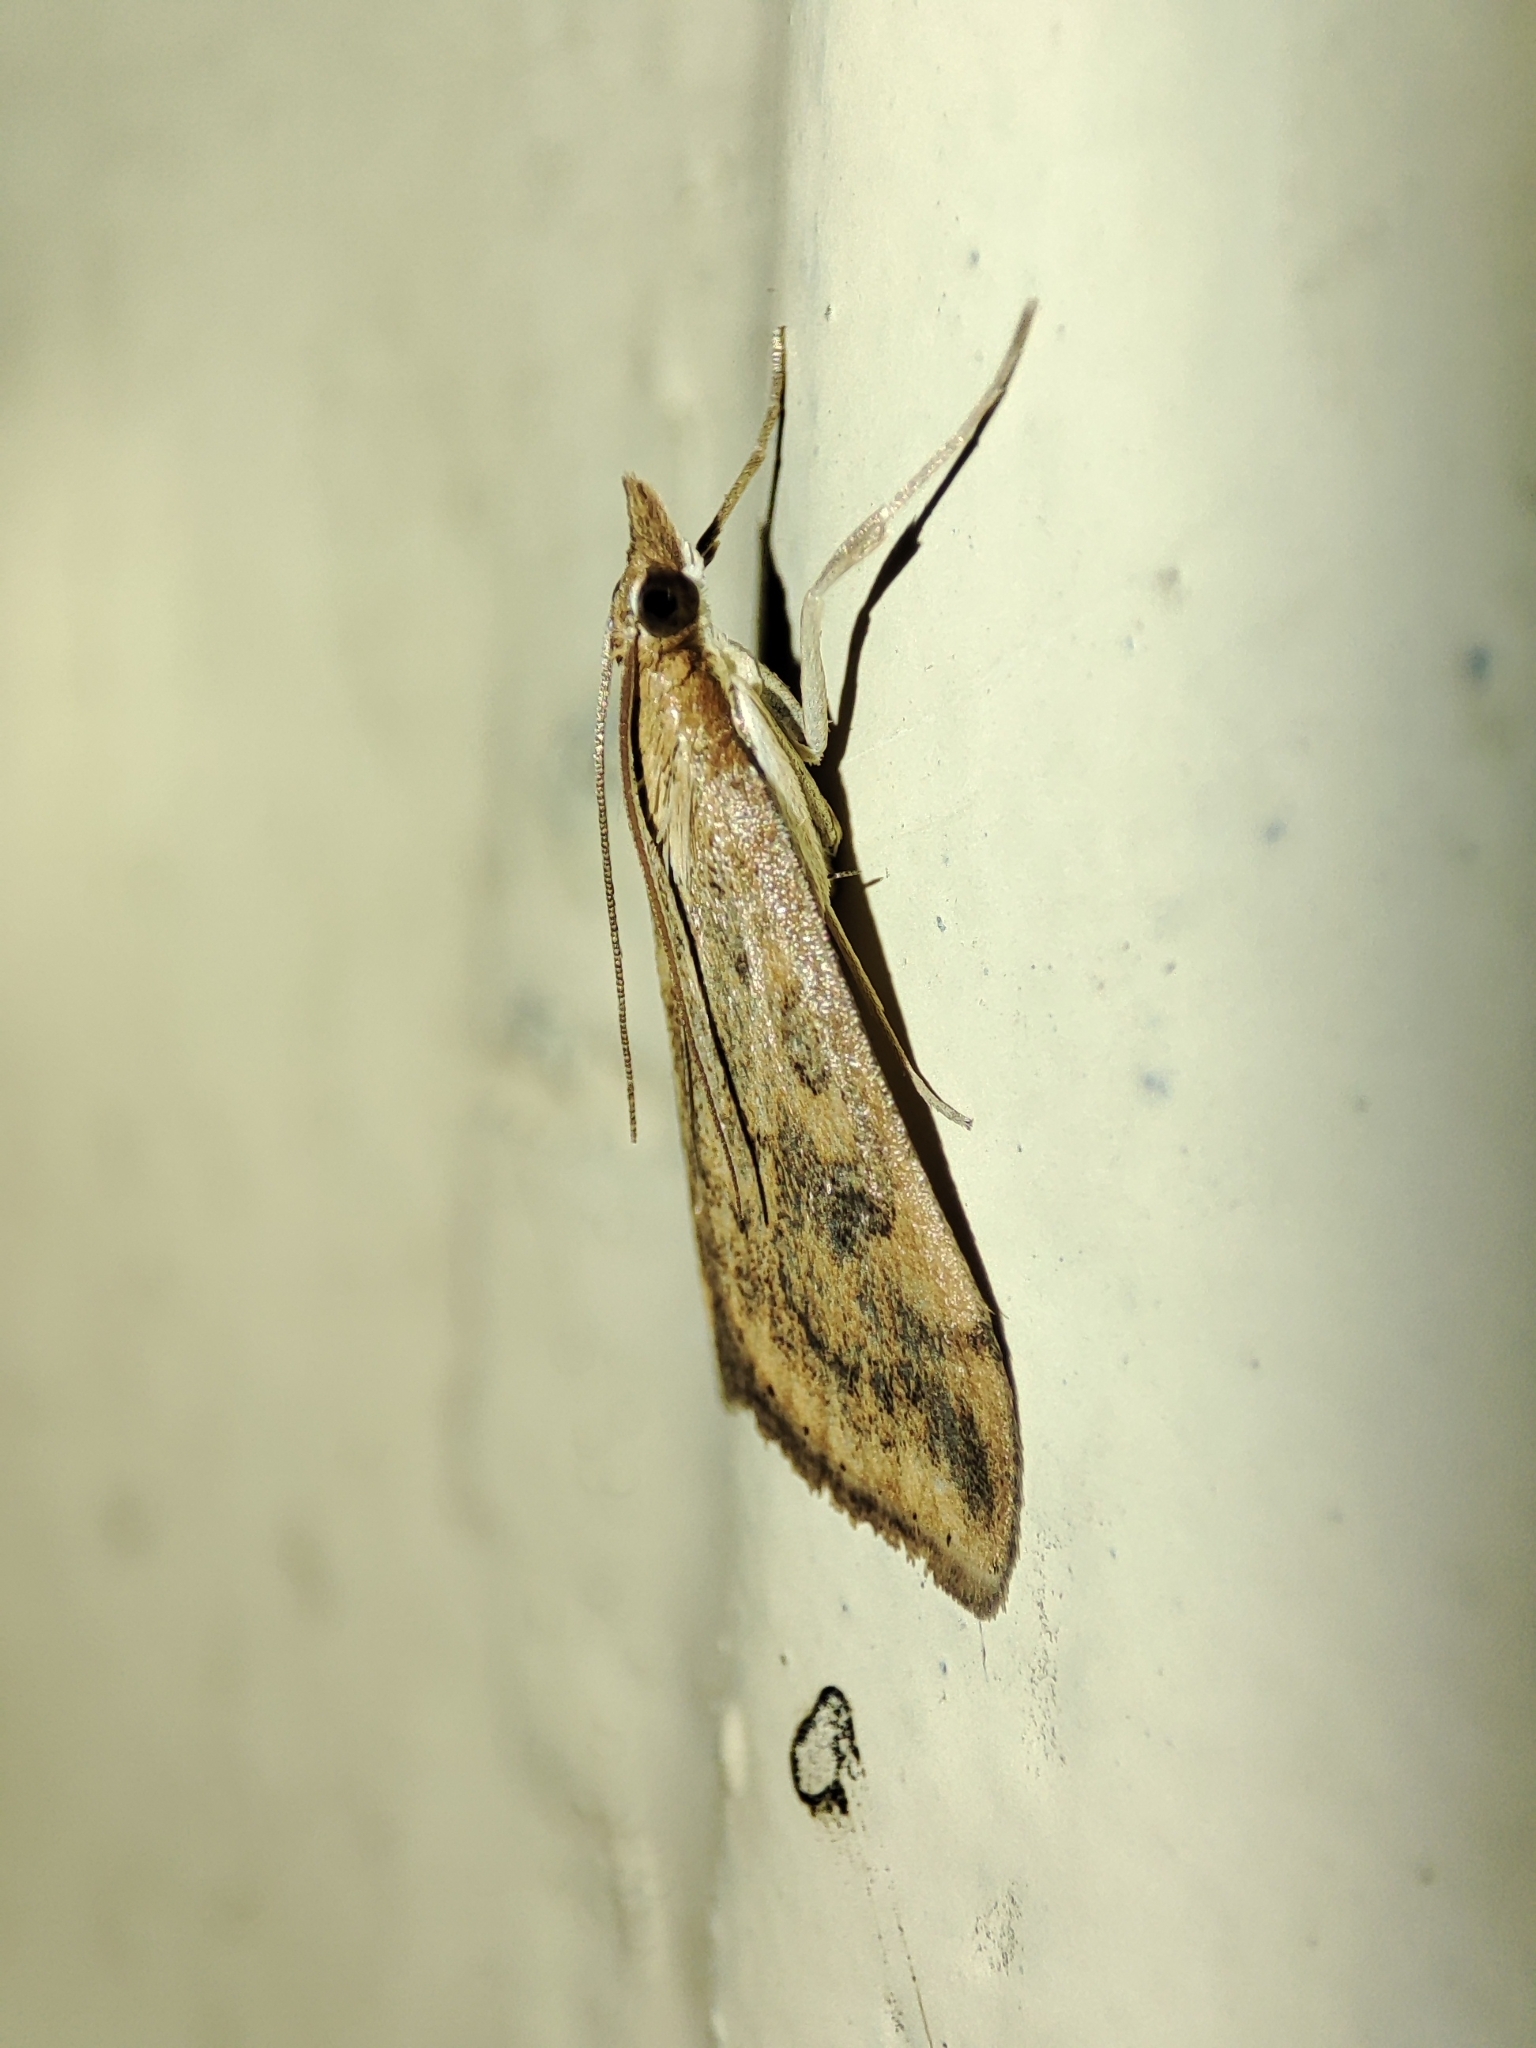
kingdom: Animalia
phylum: Arthropoda
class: Insecta
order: Lepidoptera
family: Crambidae
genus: Udea
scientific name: Udea ferrugalis
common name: Rusty dot
